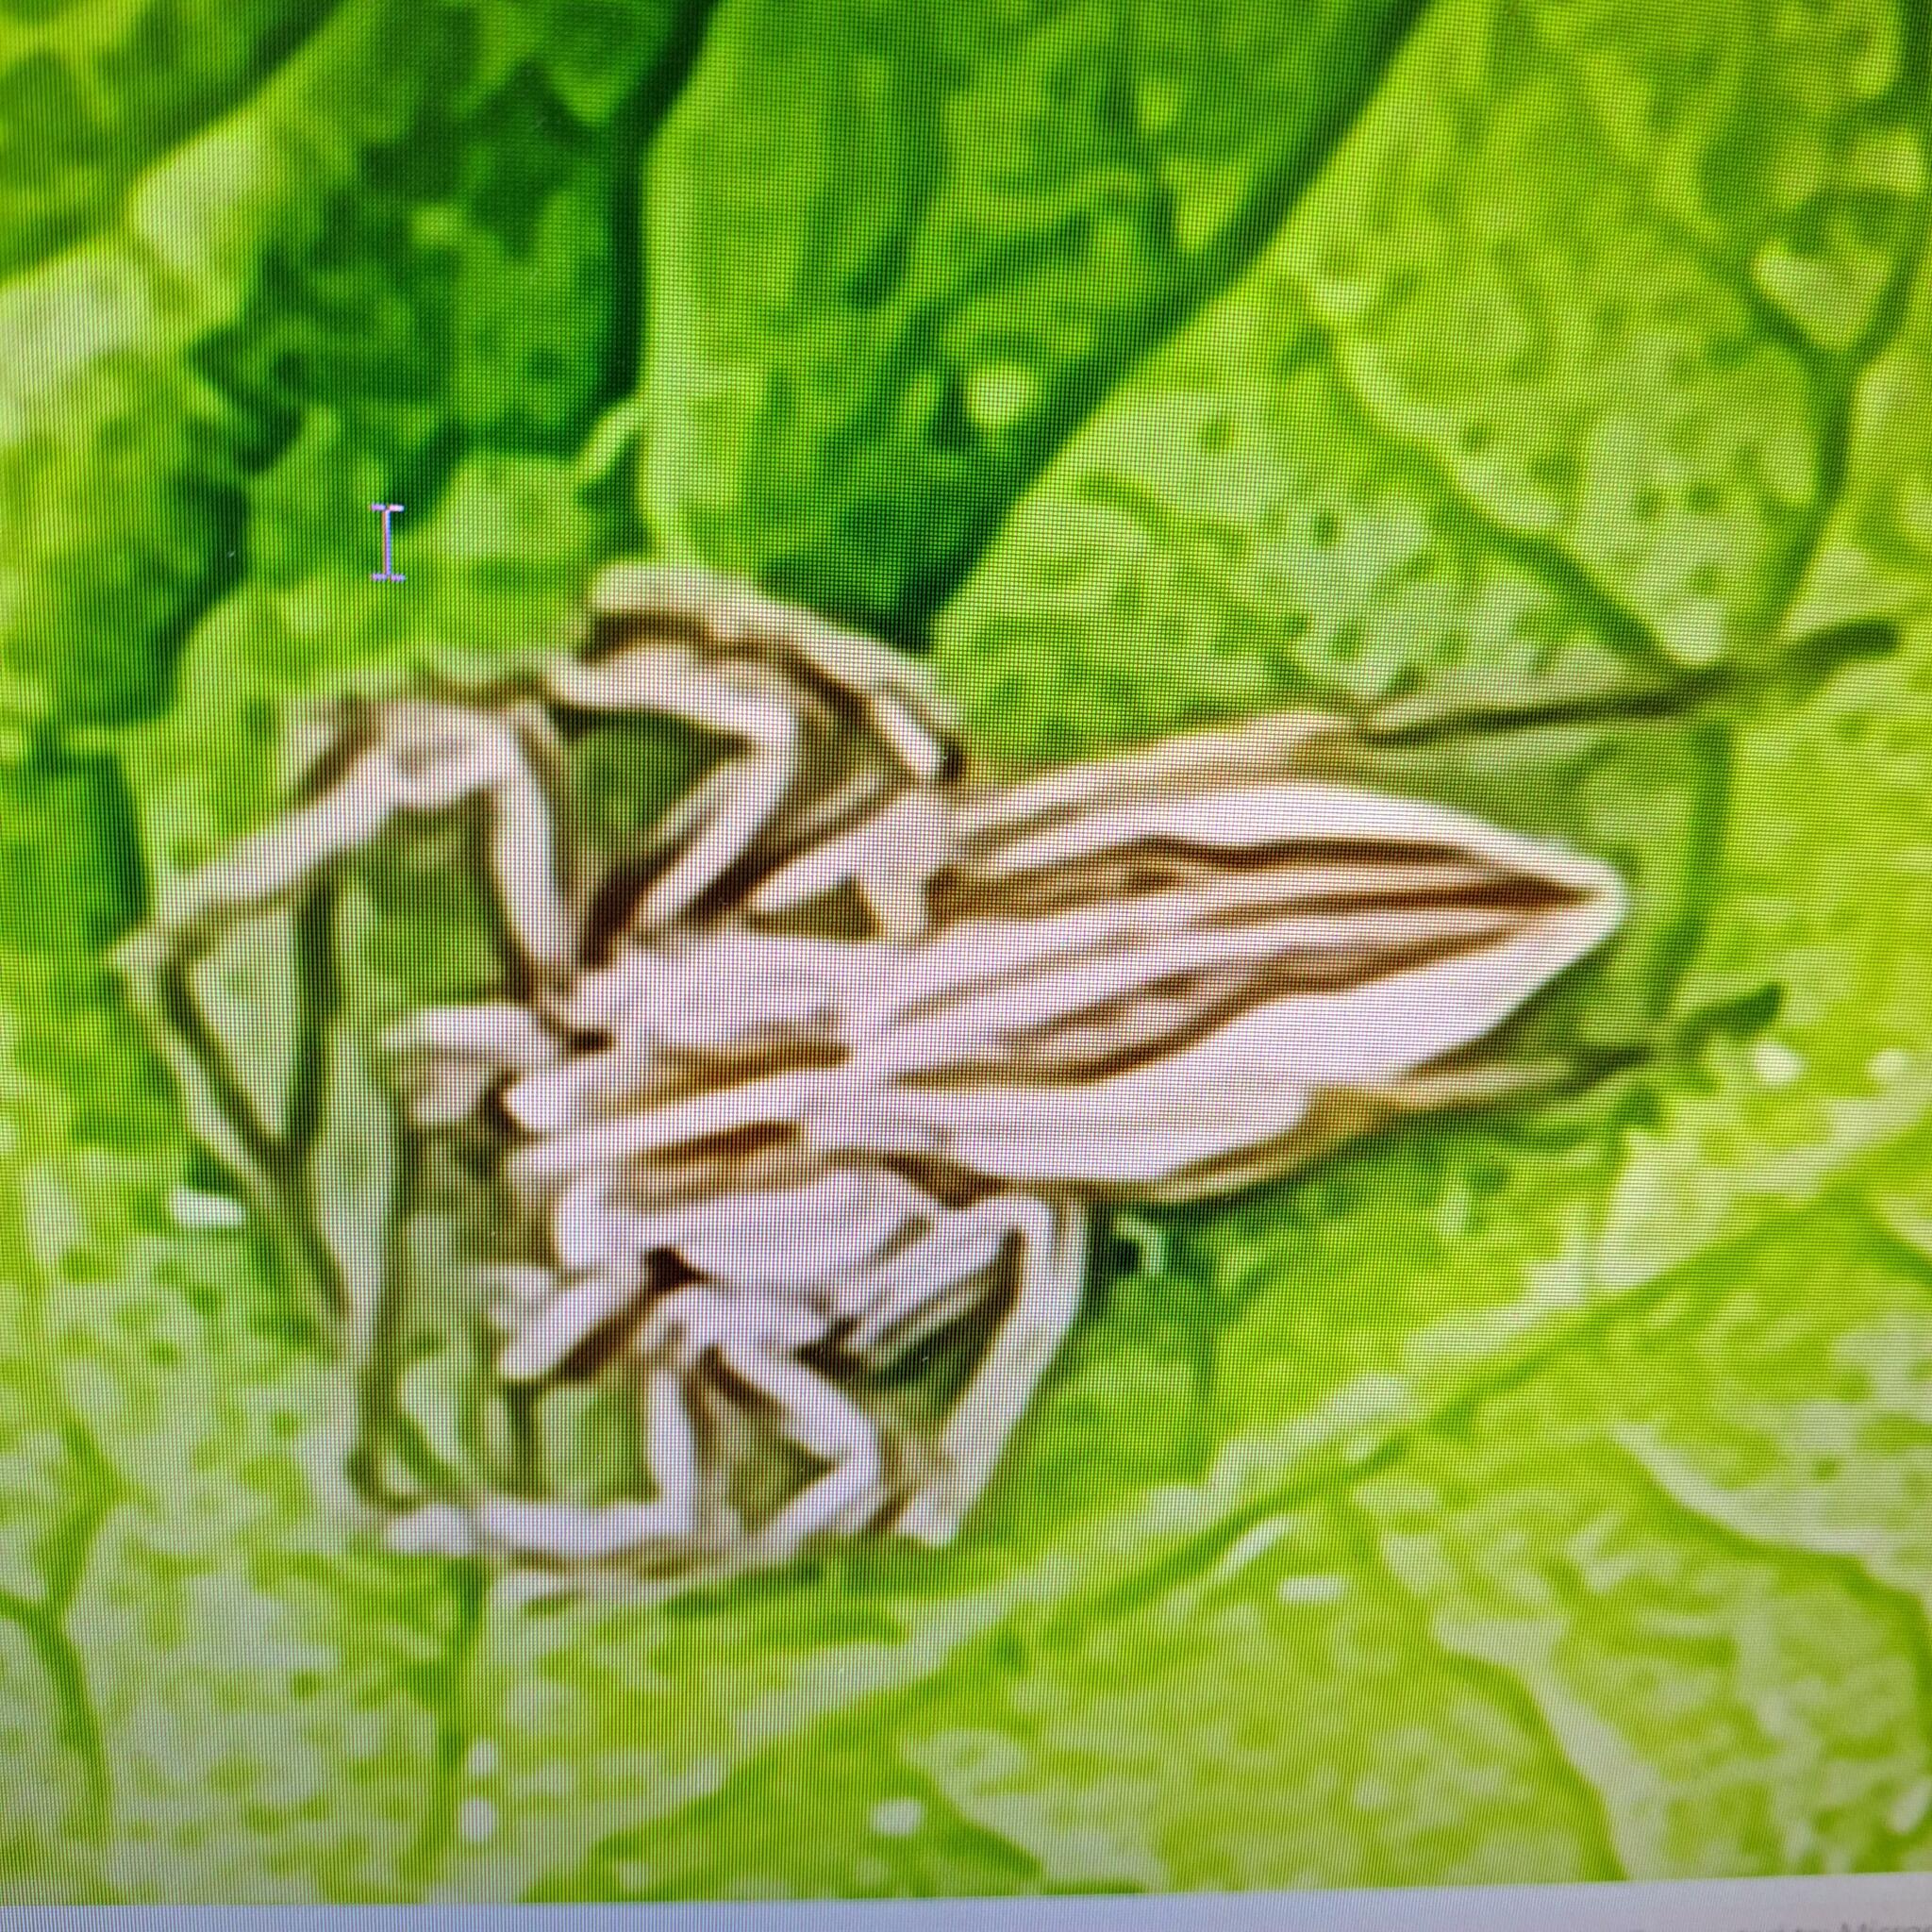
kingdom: Animalia
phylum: Arthropoda
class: Arachnida
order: Araneae
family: Pisauridae
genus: Pisaura
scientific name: Pisaura mirabilis
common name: Tent spider
